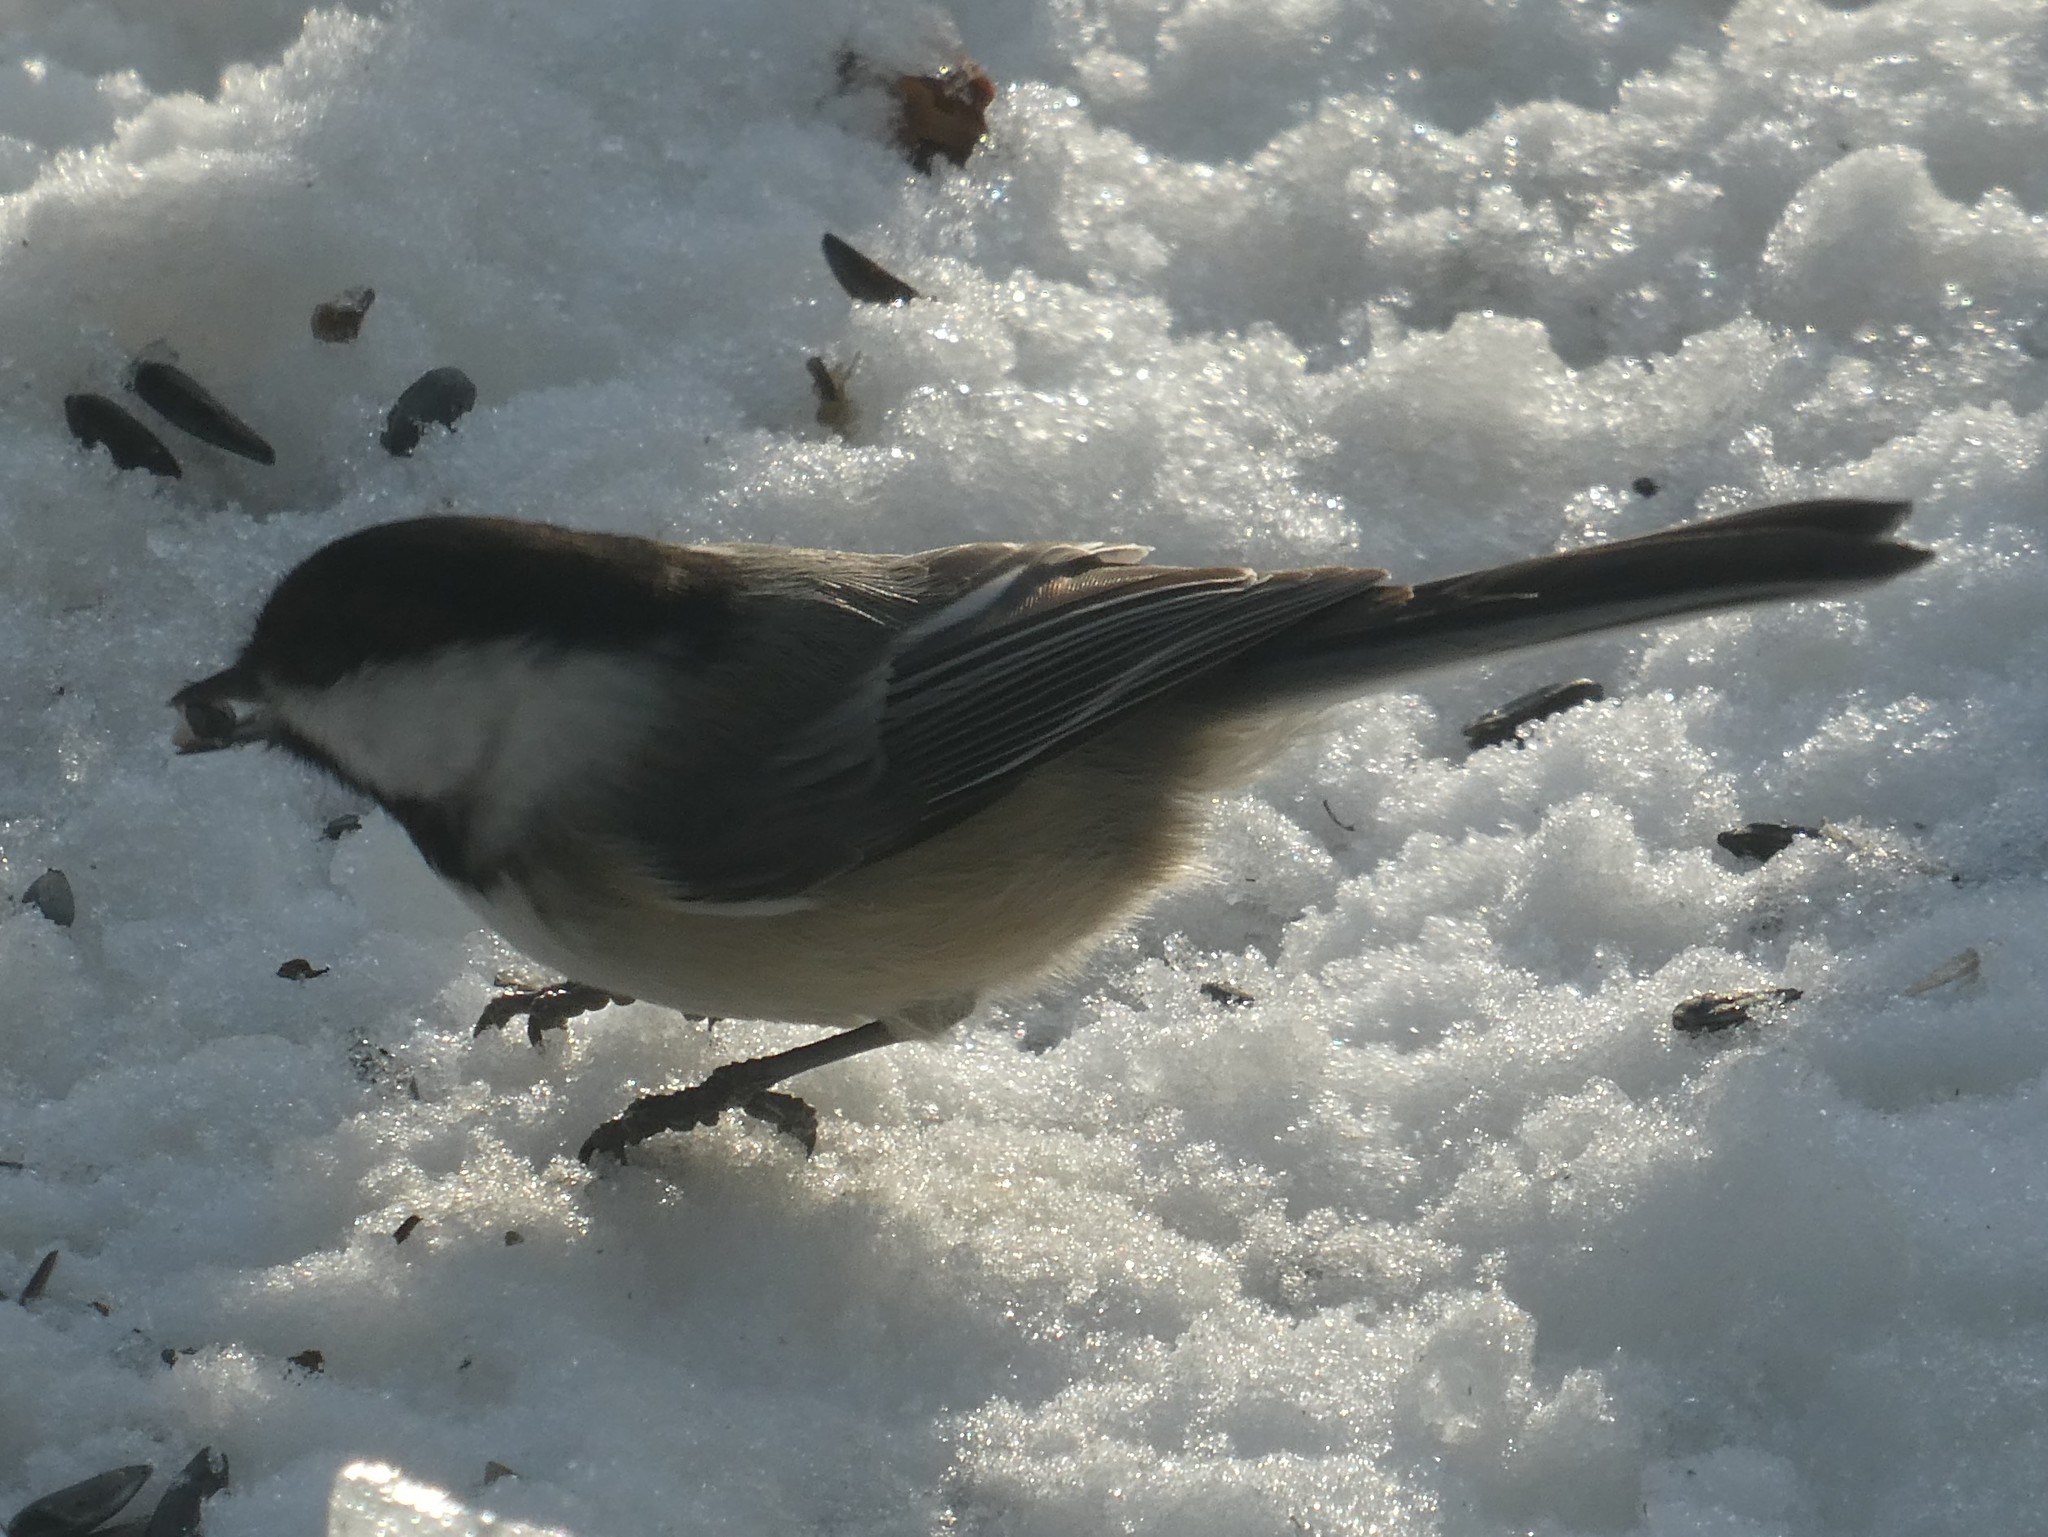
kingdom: Animalia
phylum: Chordata
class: Aves
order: Passeriformes
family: Paridae
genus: Poecile
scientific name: Poecile atricapillus
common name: Black-capped chickadee
